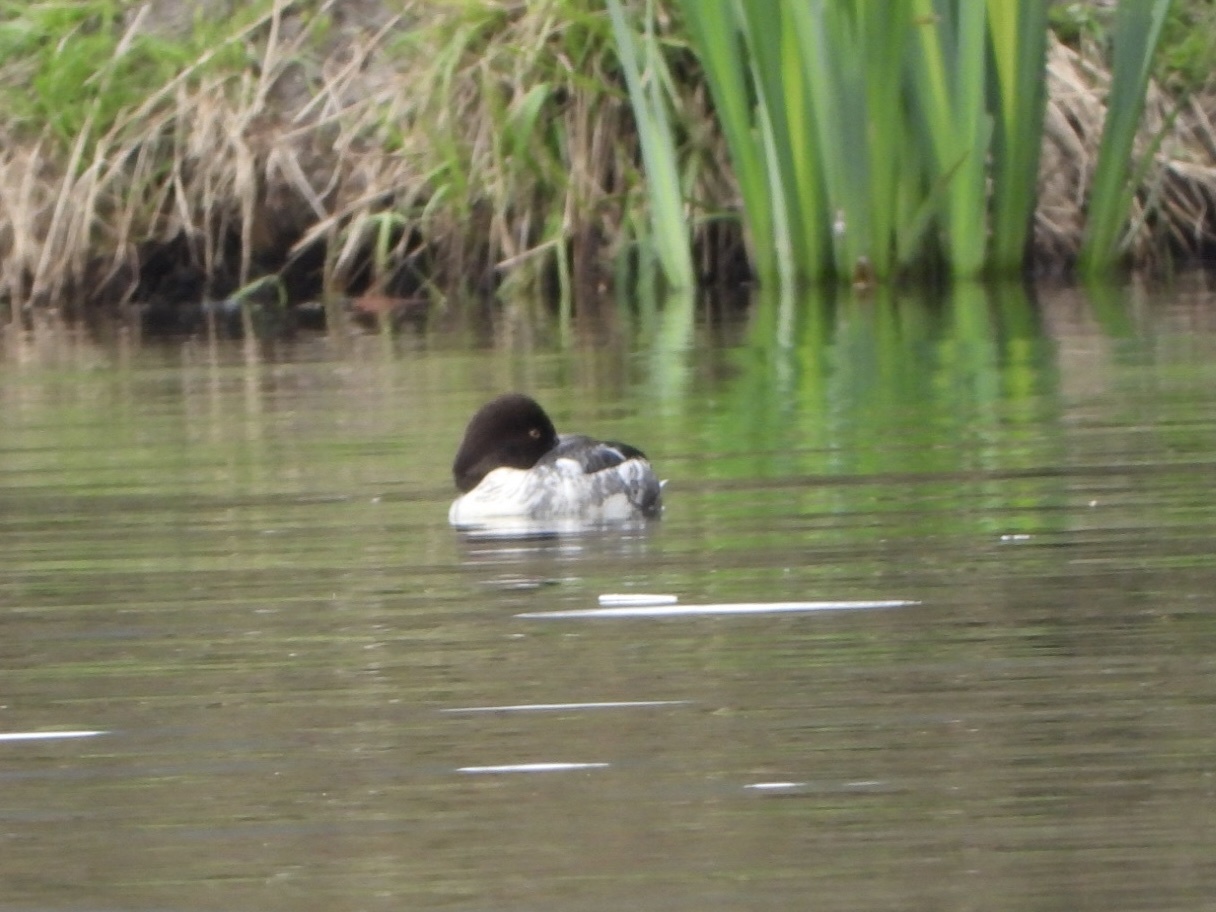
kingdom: Animalia
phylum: Chordata
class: Aves
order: Anseriformes
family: Anatidae
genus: Bucephala
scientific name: Bucephala clangula
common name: Common goldeneye
